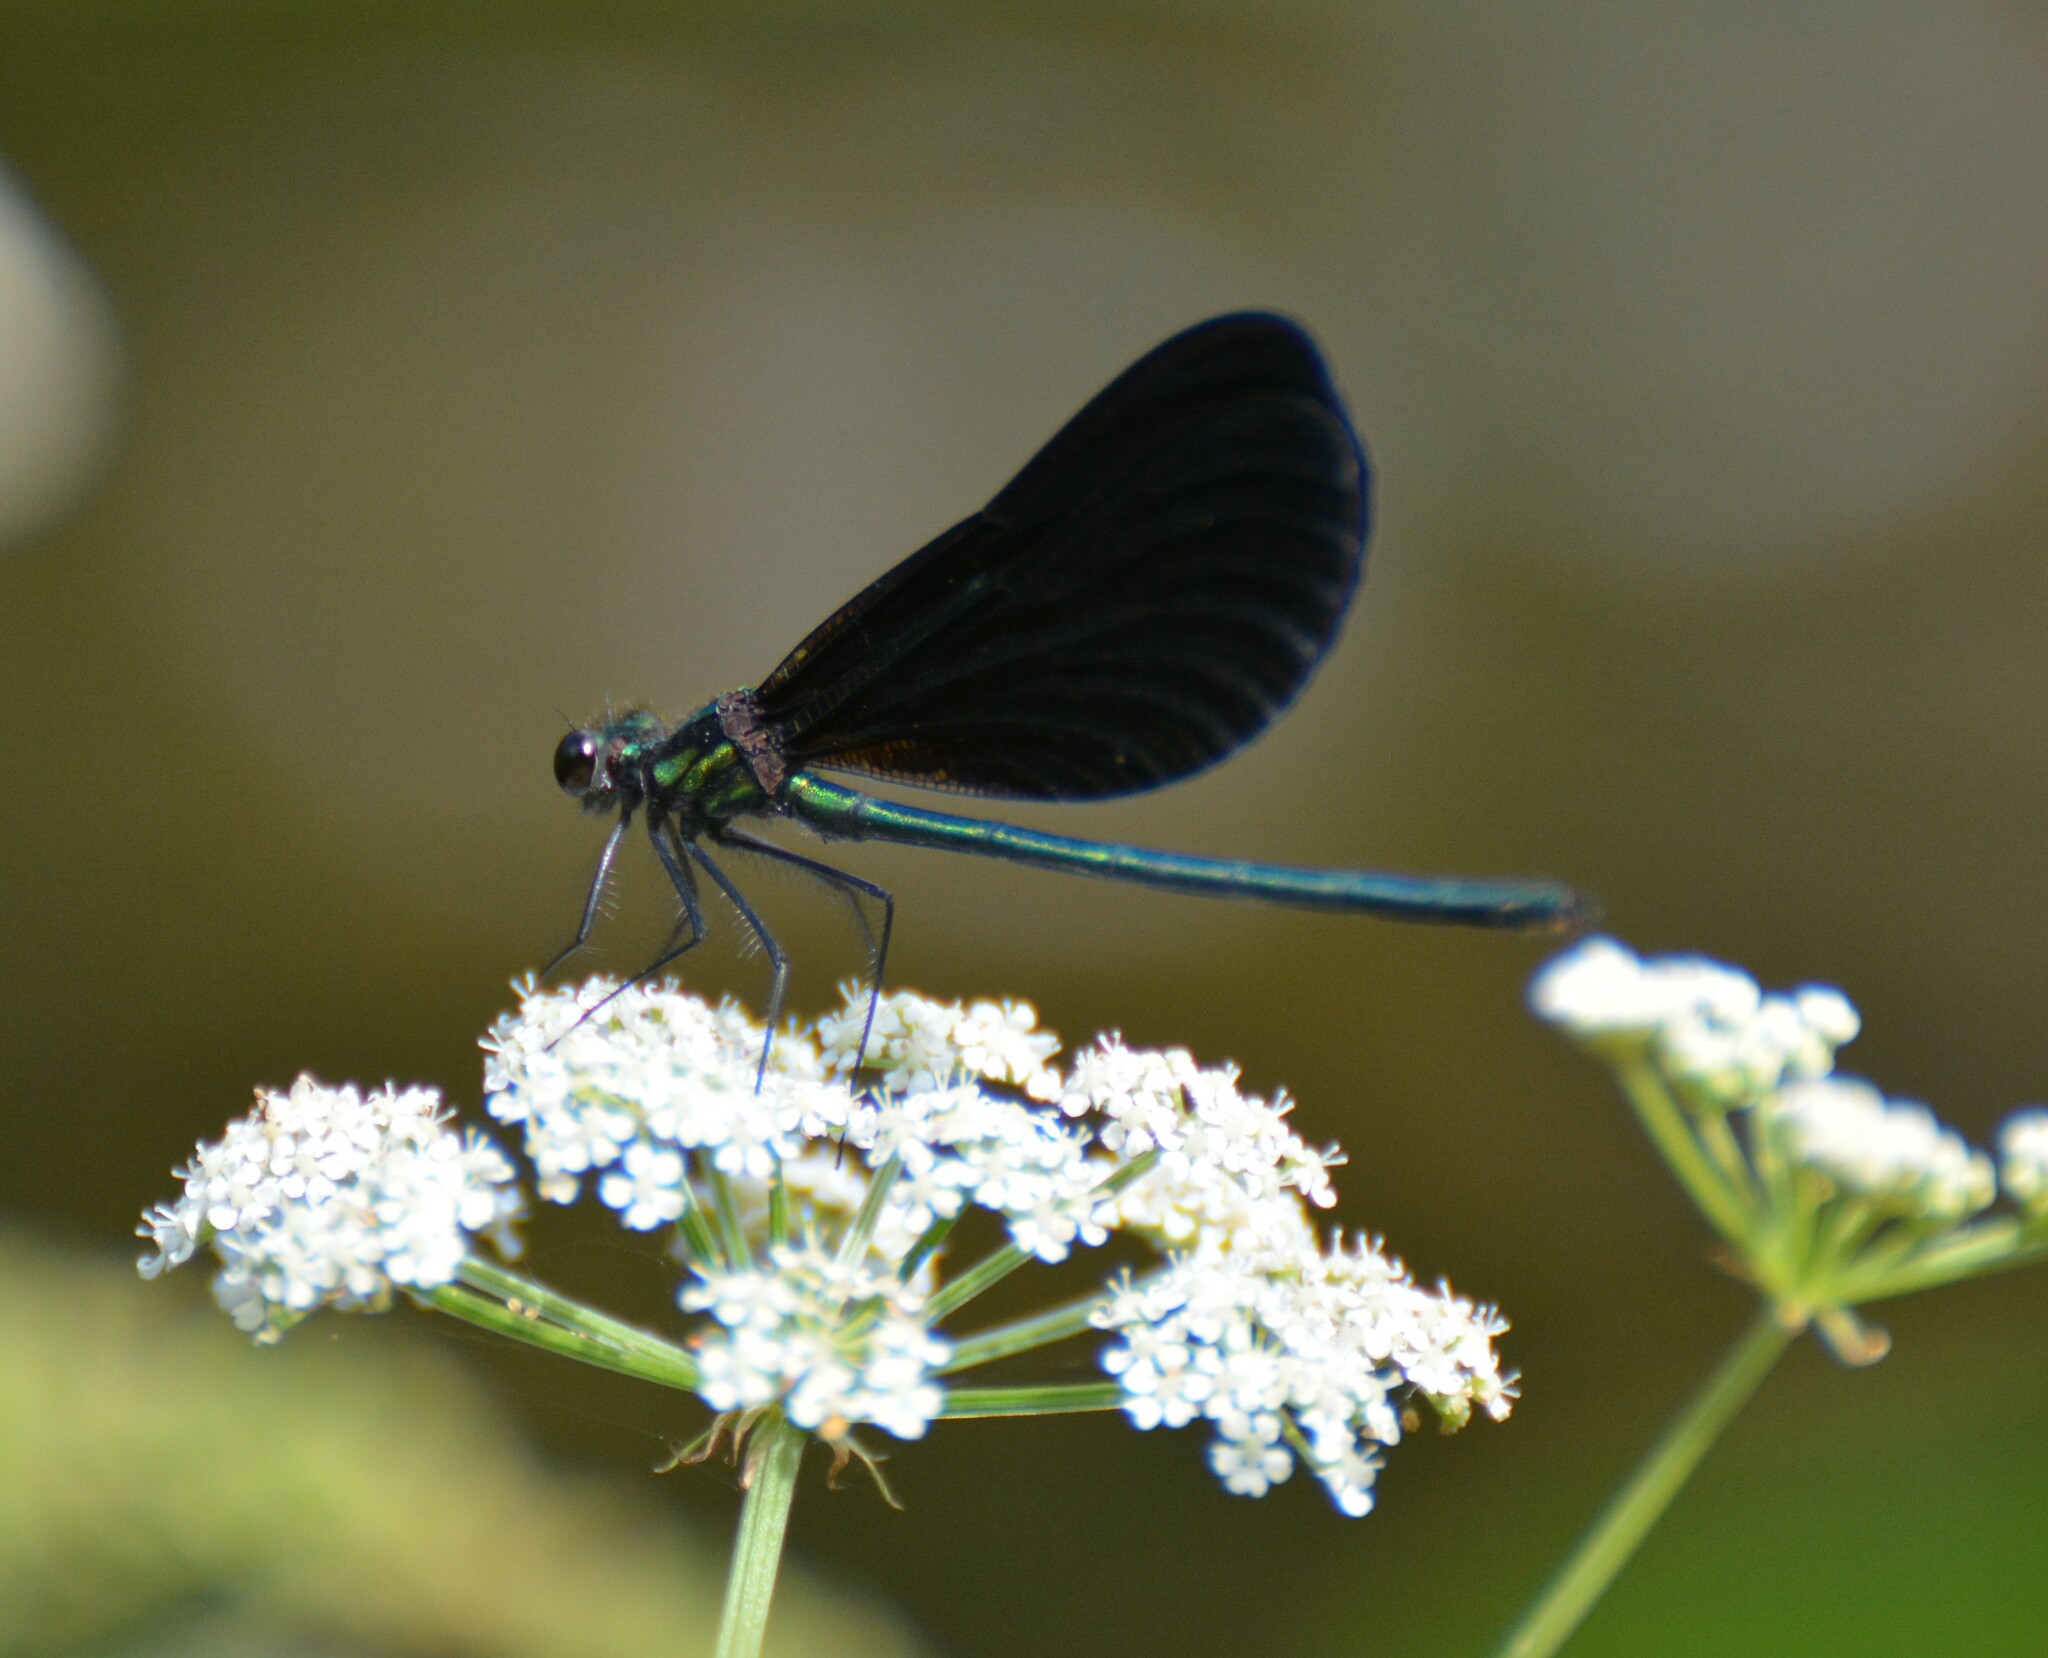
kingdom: Animalia
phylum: Arthropoda
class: Insecta
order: Odonata
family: Calopterygidae
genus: Calopteryx
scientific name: Calopteryx maculata
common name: Ebony jewelwing
